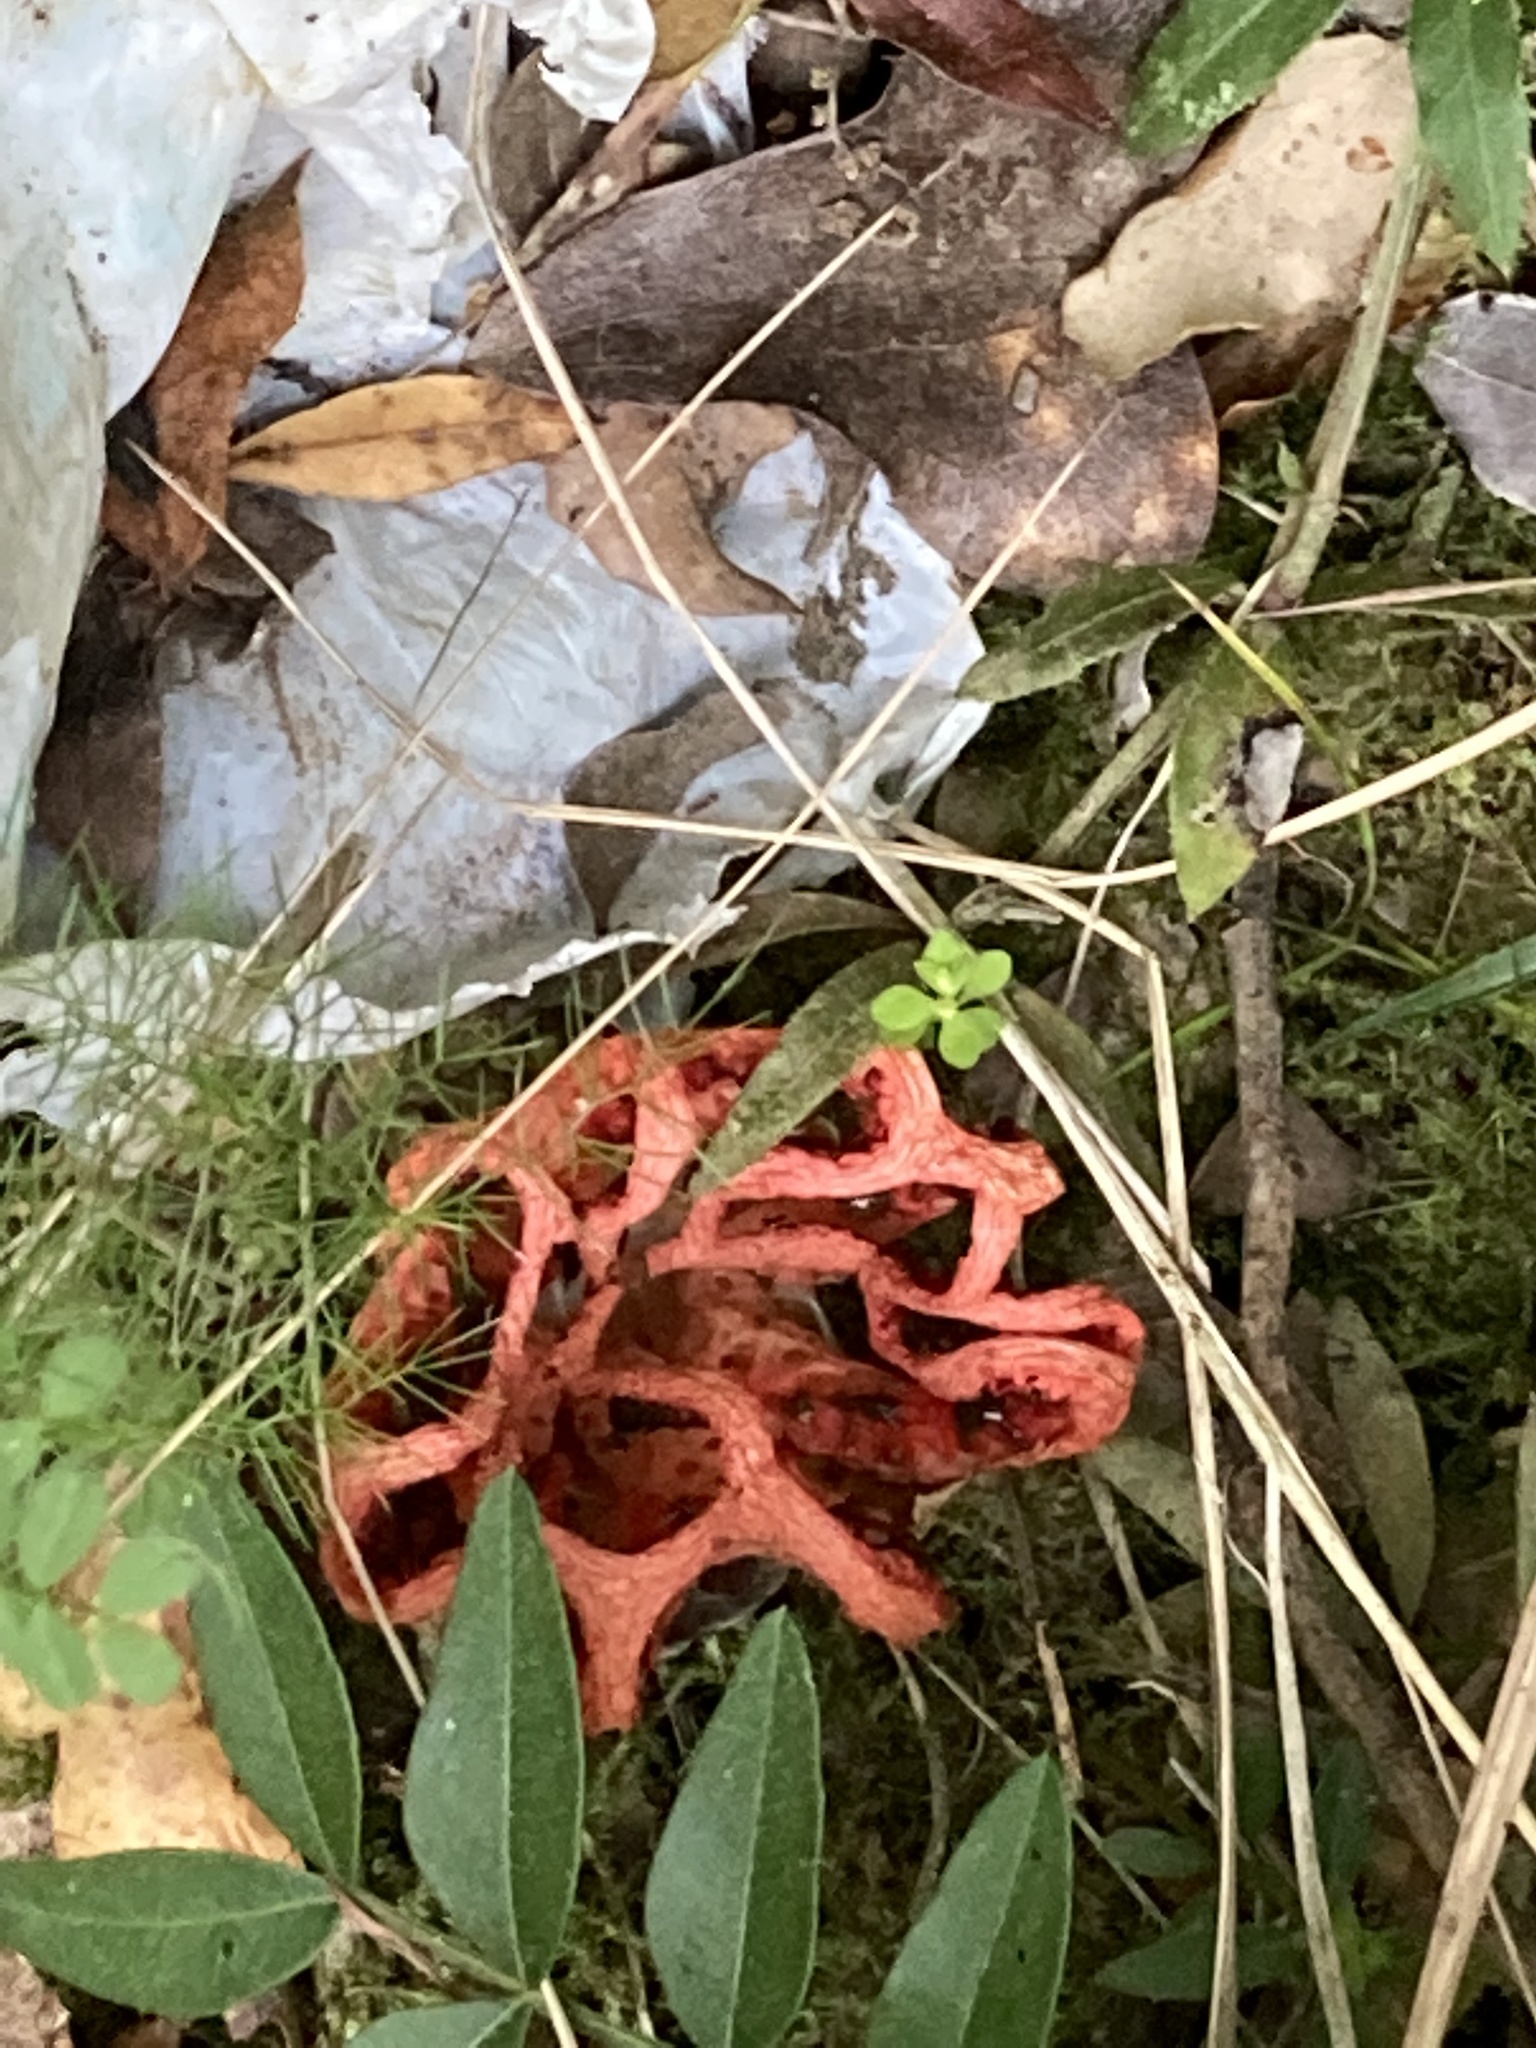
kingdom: Fungi
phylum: Basidiomycota
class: Agaricomycetes
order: Phallales
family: Phallaceae
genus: Clathrus
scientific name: Clathrus ruber
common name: Red cage
